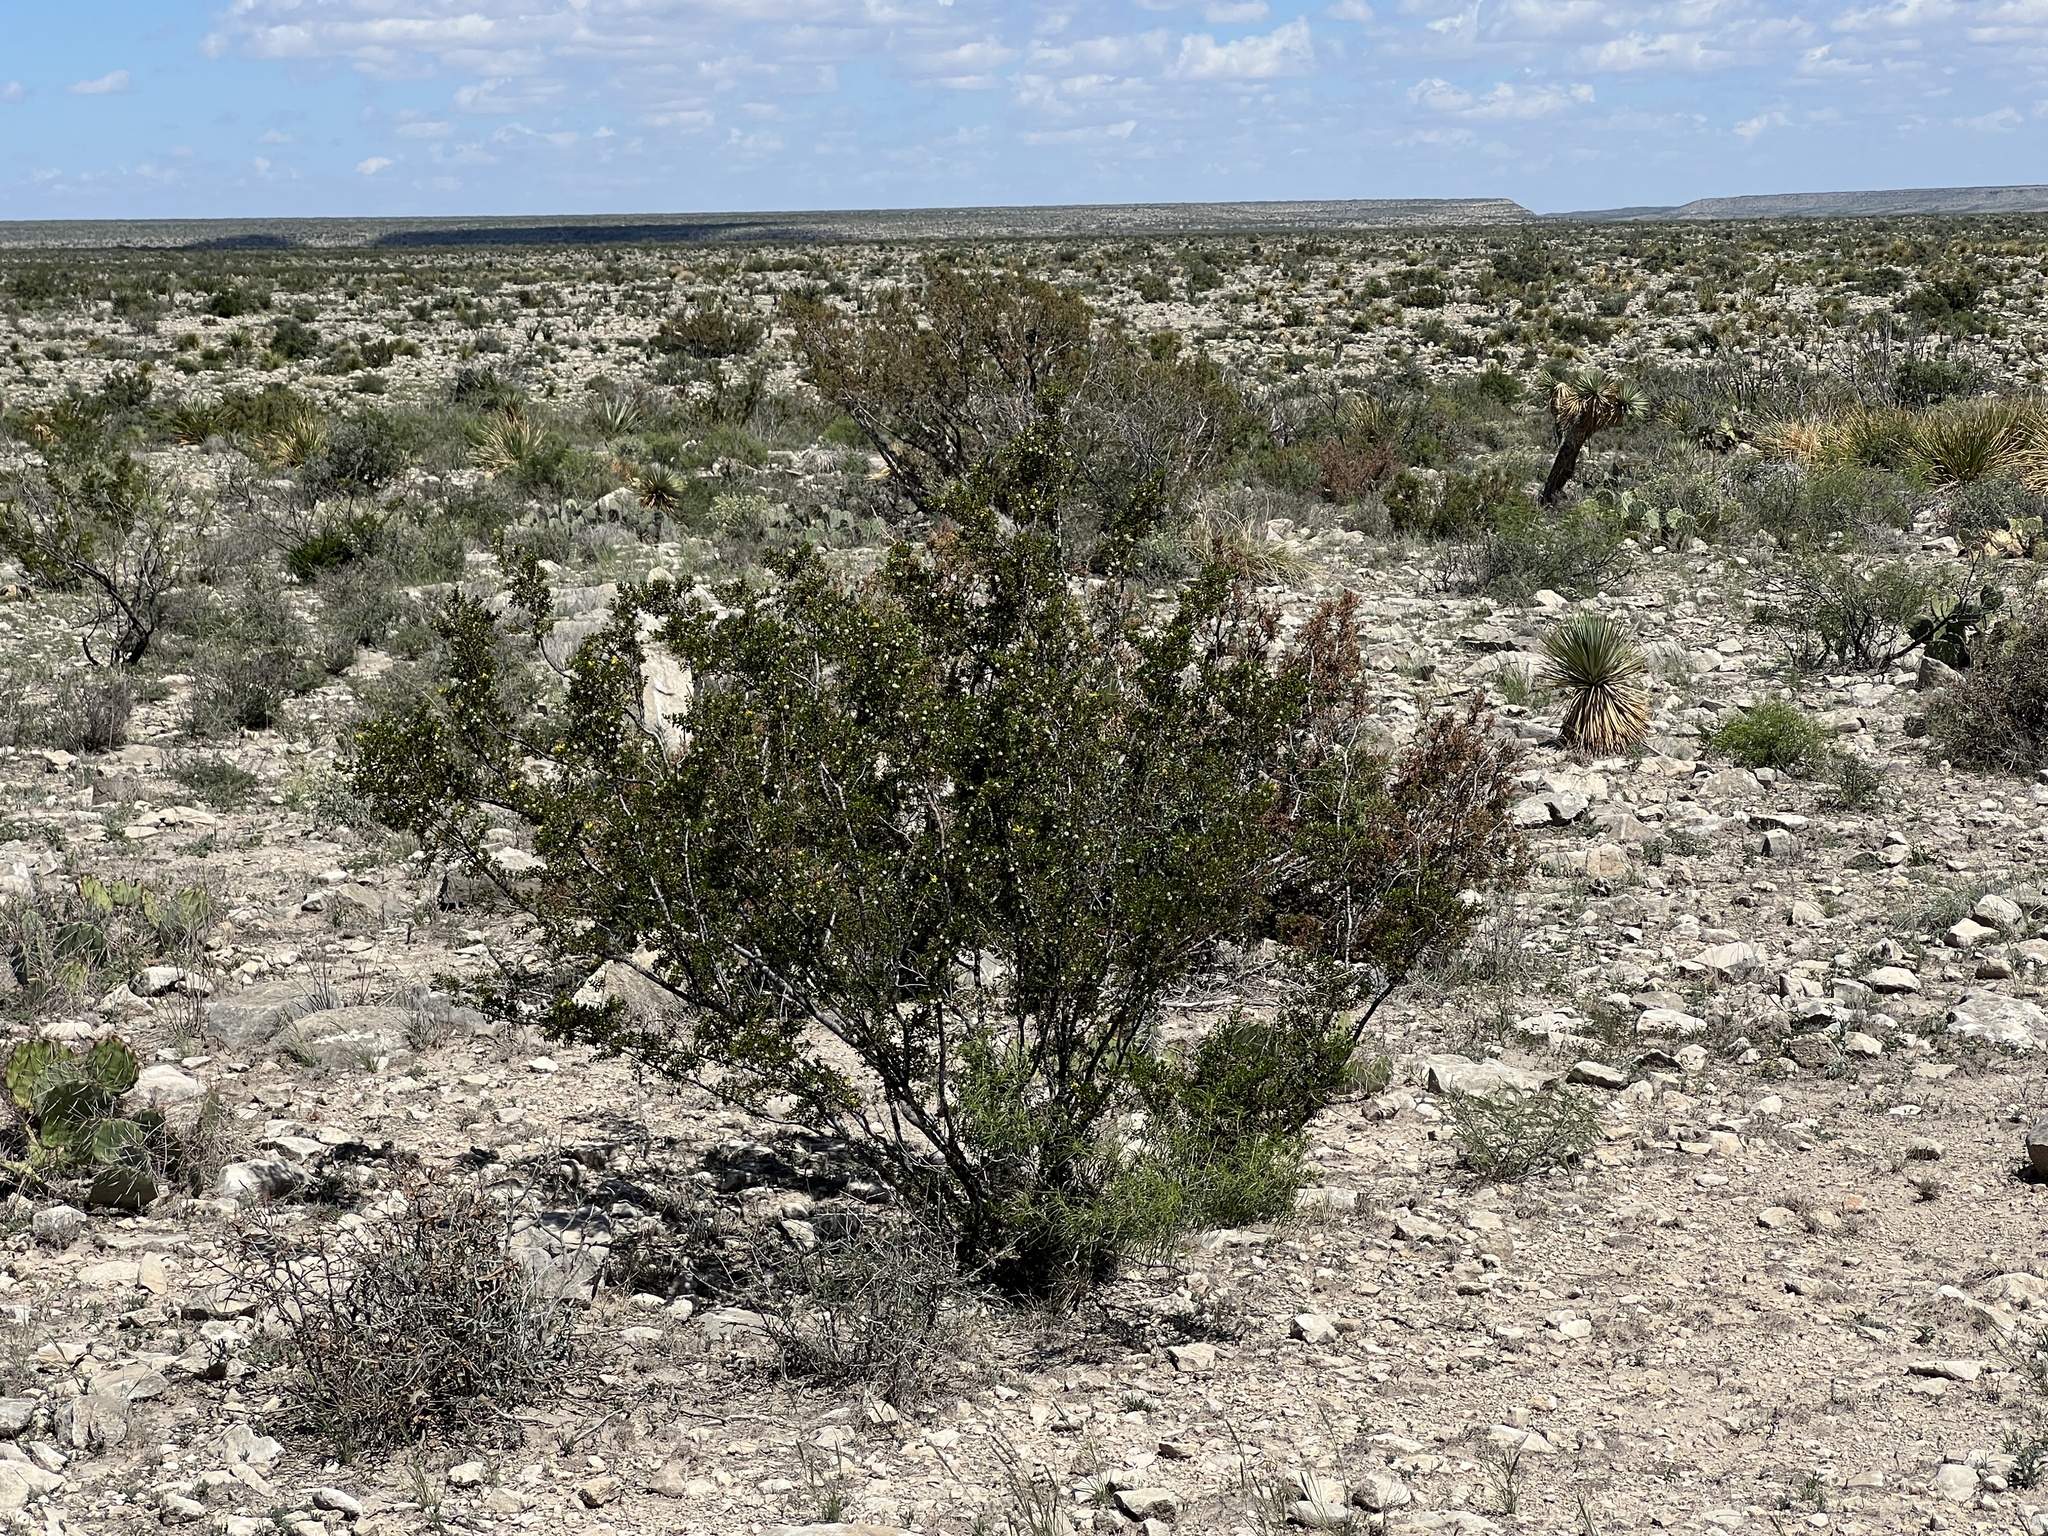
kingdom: Plantae
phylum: Tracheophyta
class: Magnoliopsida
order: Zygophyllales
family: Zygophyllaceae
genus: Larrea
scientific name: Larrea tridentata
